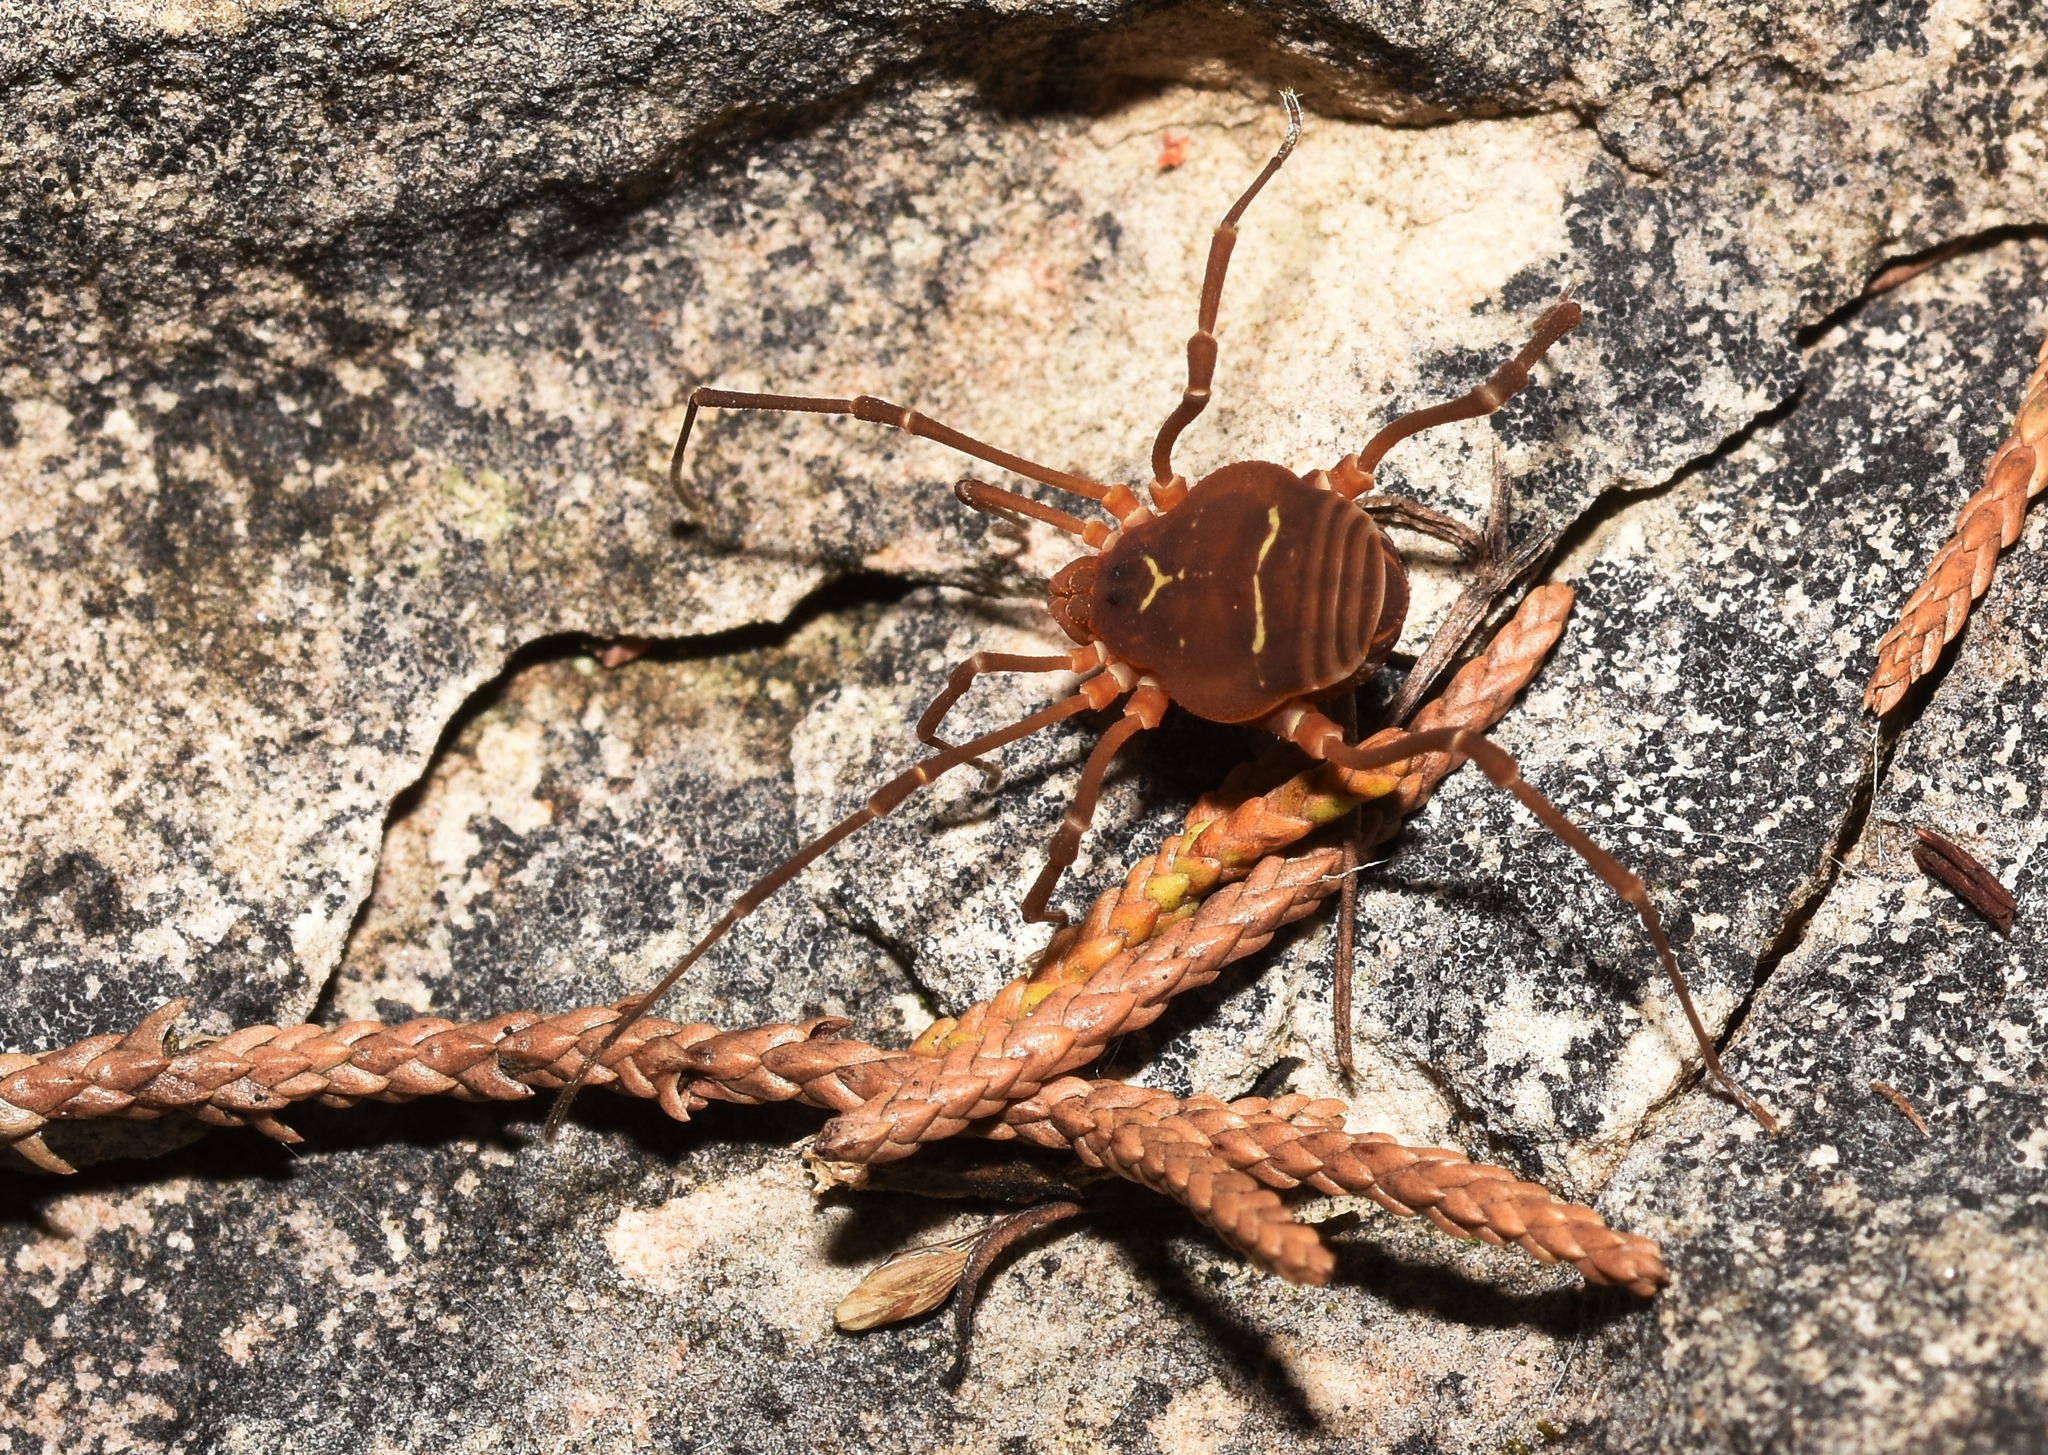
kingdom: Animalia
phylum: Arthropoda
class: Arachnida
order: Opiliones
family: Cosmetidae
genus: Libitioides
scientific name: Libitioides sayi
